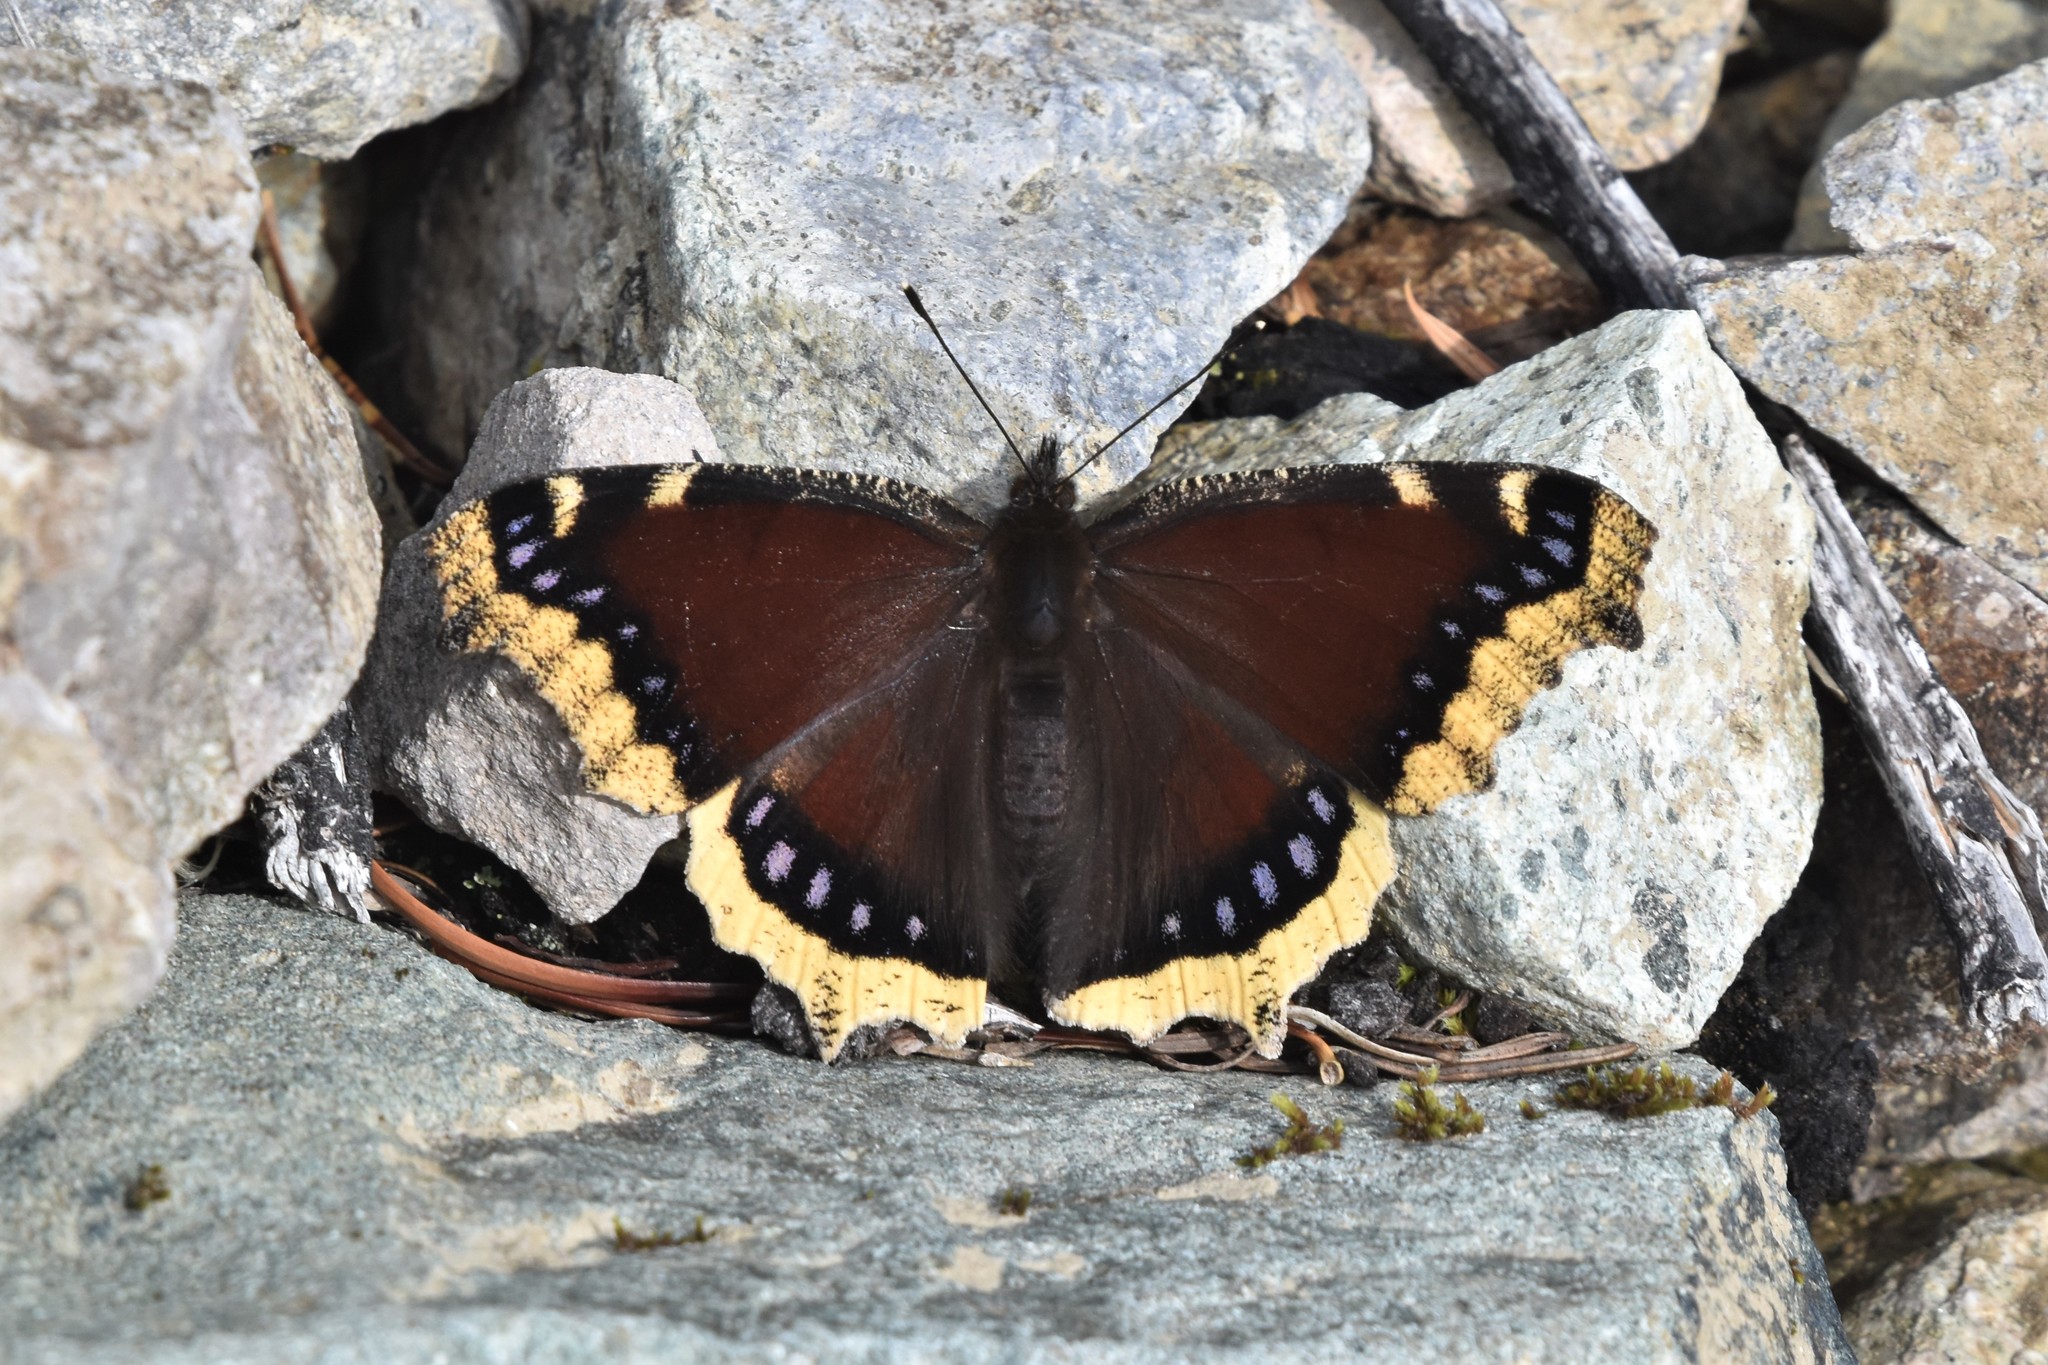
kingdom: Animalia
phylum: Arthropoda
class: Insecta
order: Lepidoptera
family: Nymphalidae
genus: Nymphalis
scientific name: Nymphalis antiopa
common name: Camberwell beauty
